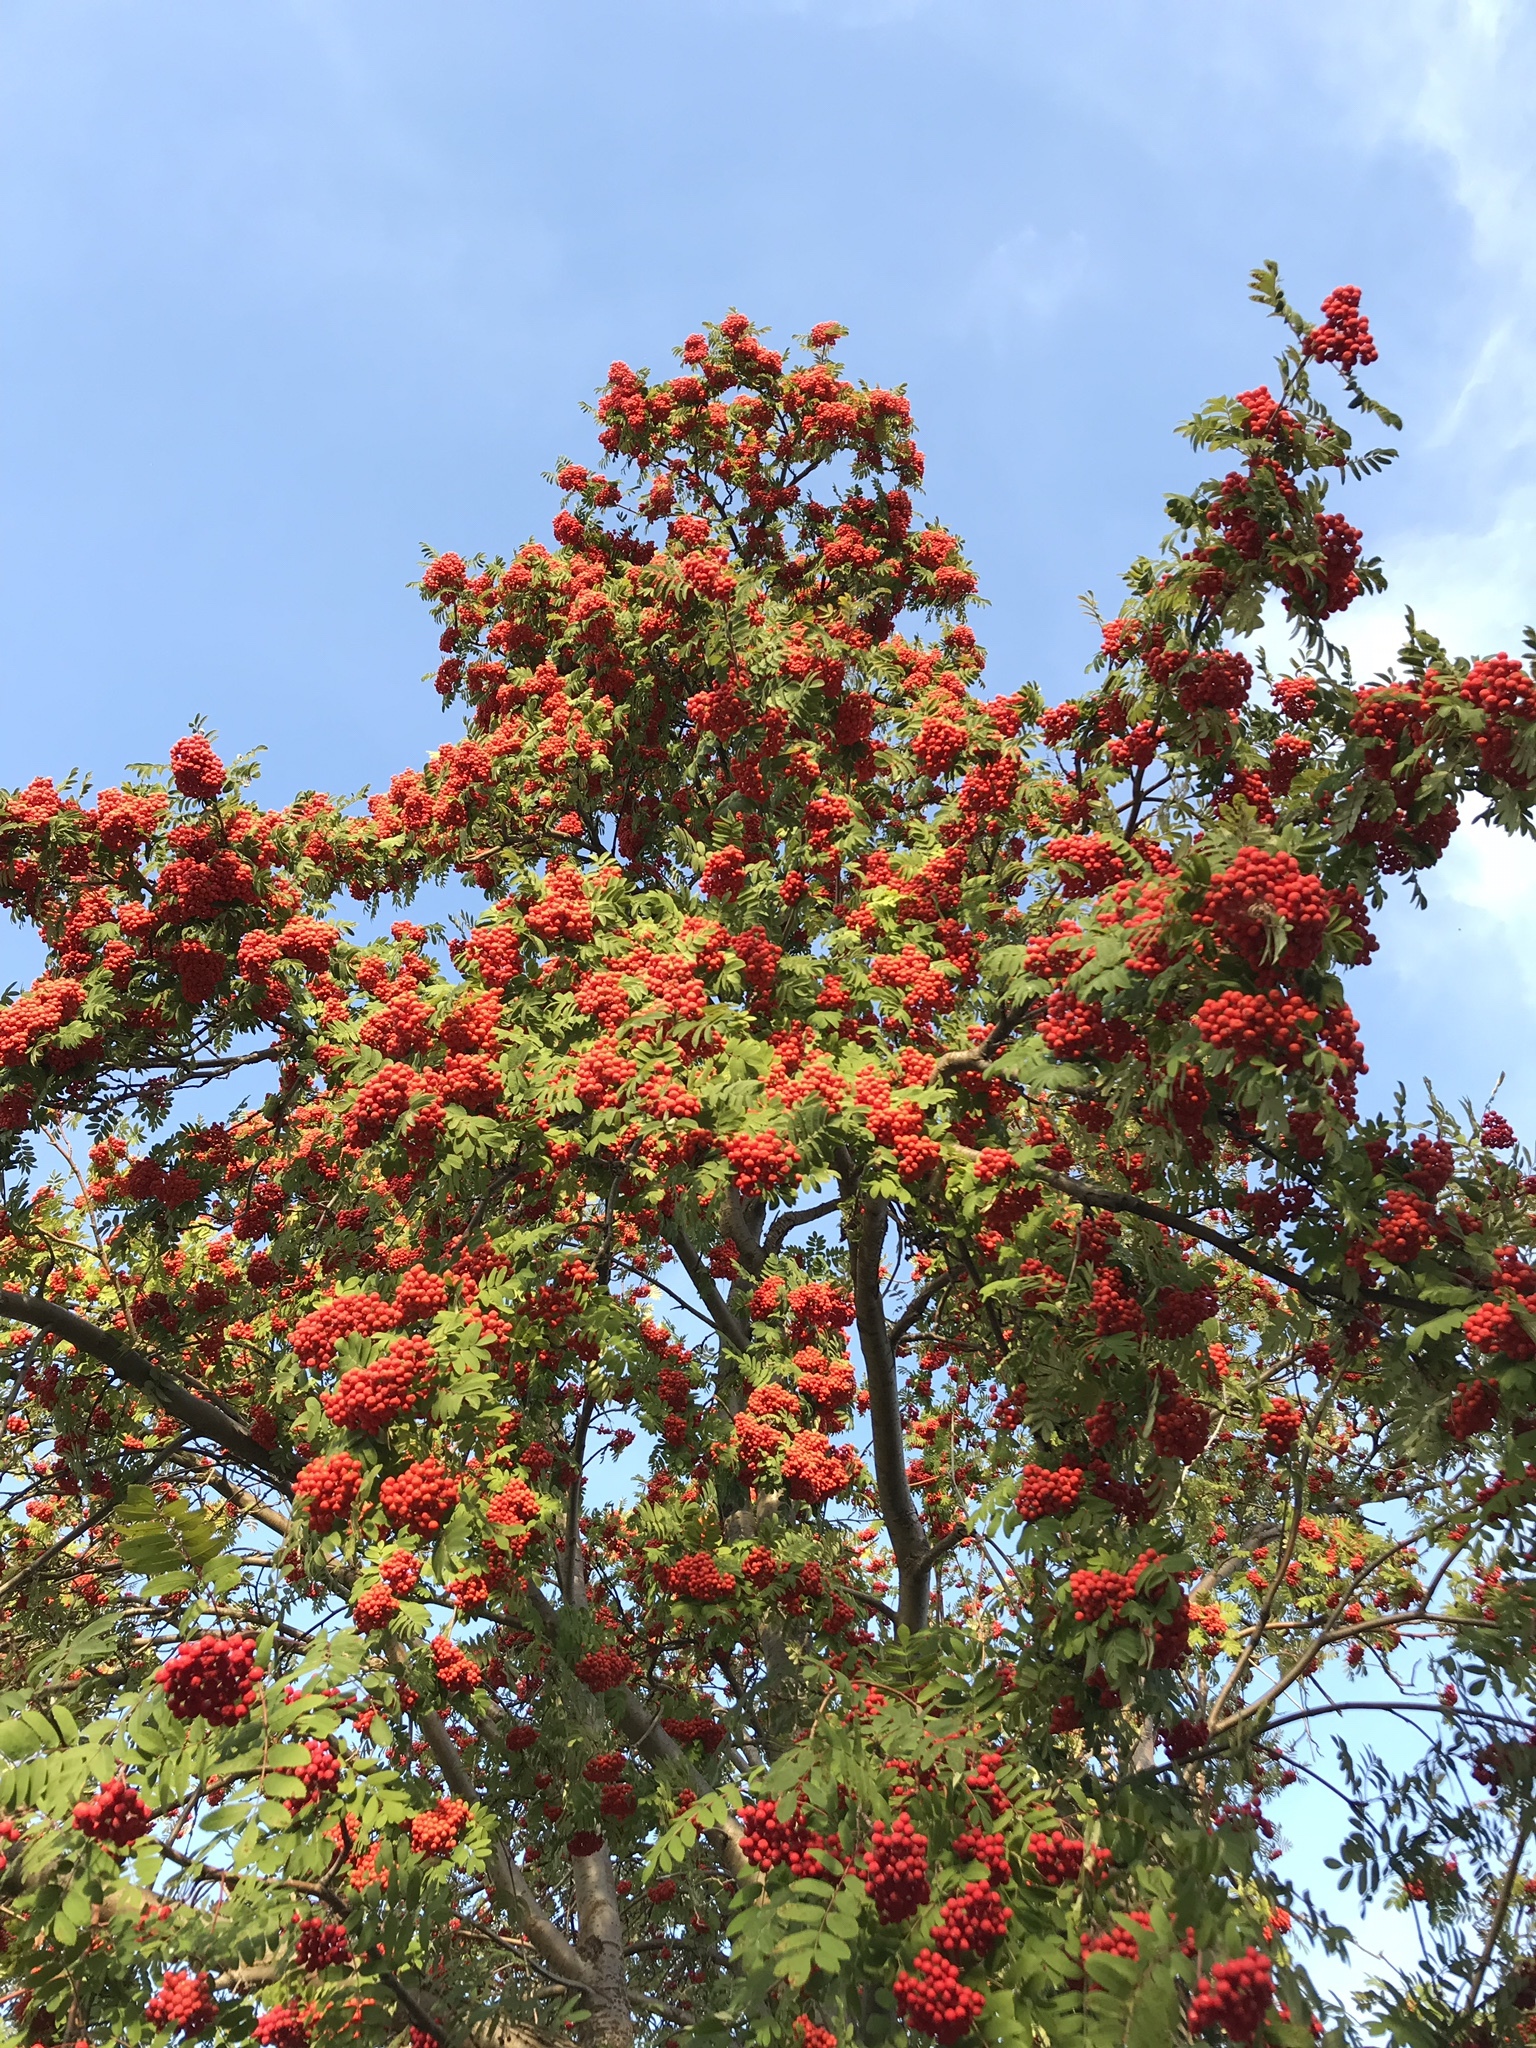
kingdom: Plantae
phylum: Tracheophyta
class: Magnoliopsida
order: Rosales
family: Rosaceae
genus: Sorbus
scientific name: Sorbus aucuparia
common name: Rowan
